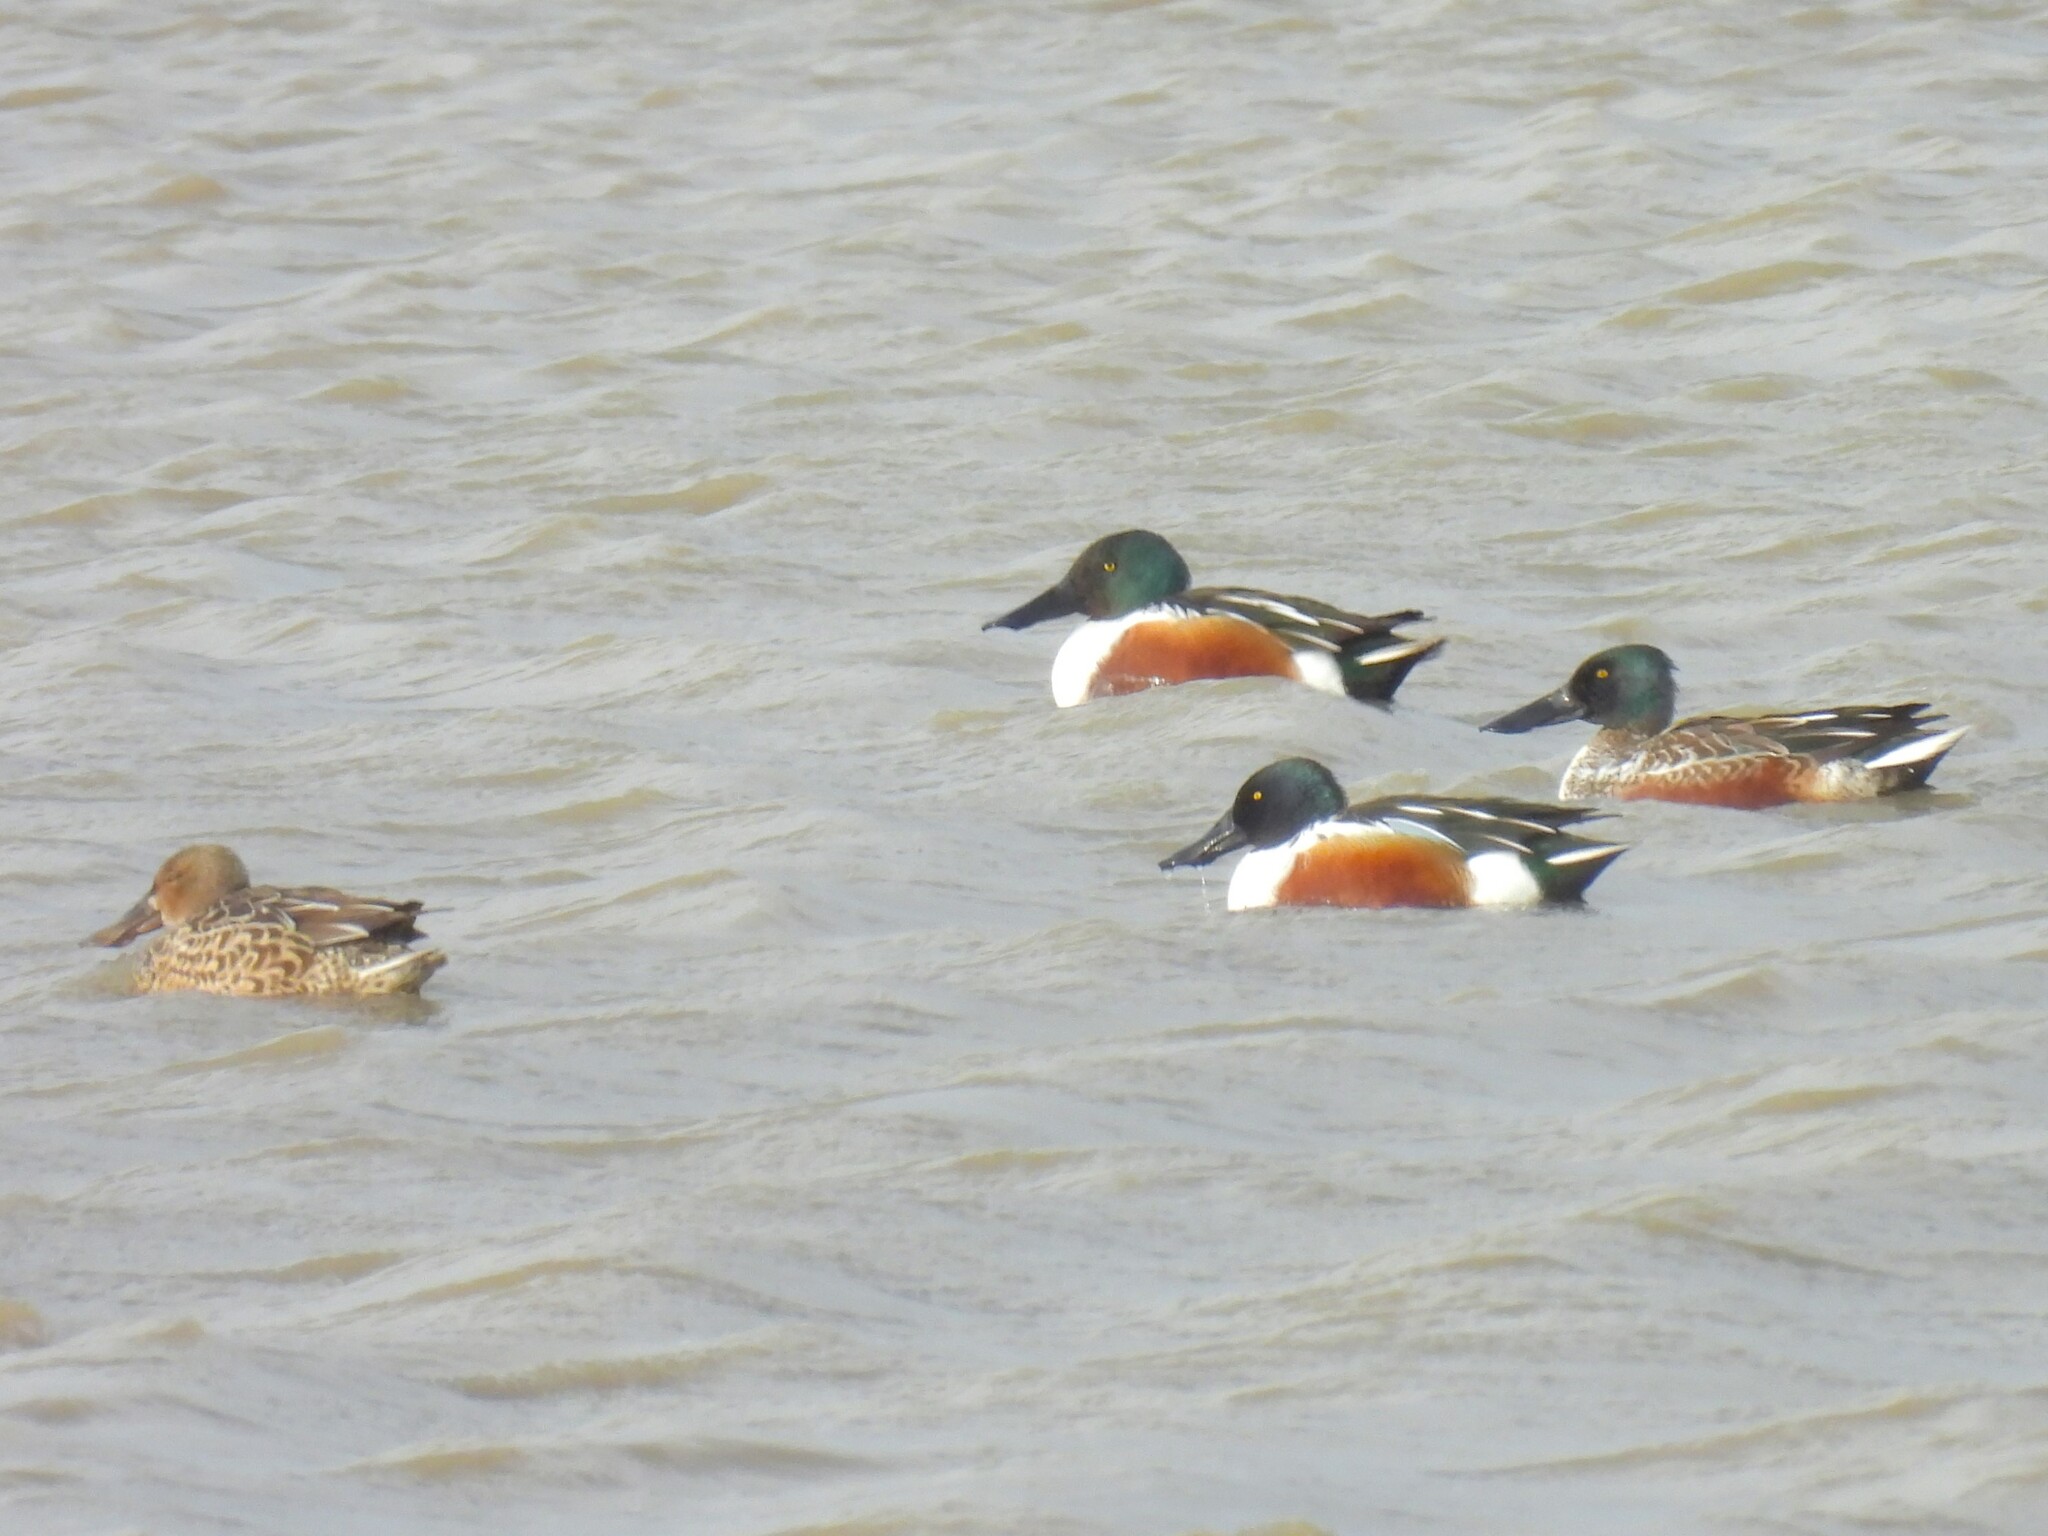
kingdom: Animalia
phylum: Chordata
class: Aves
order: Anseriformes
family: Anatidae
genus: Spatula
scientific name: Spatula clypeata
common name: Northern shoveler
